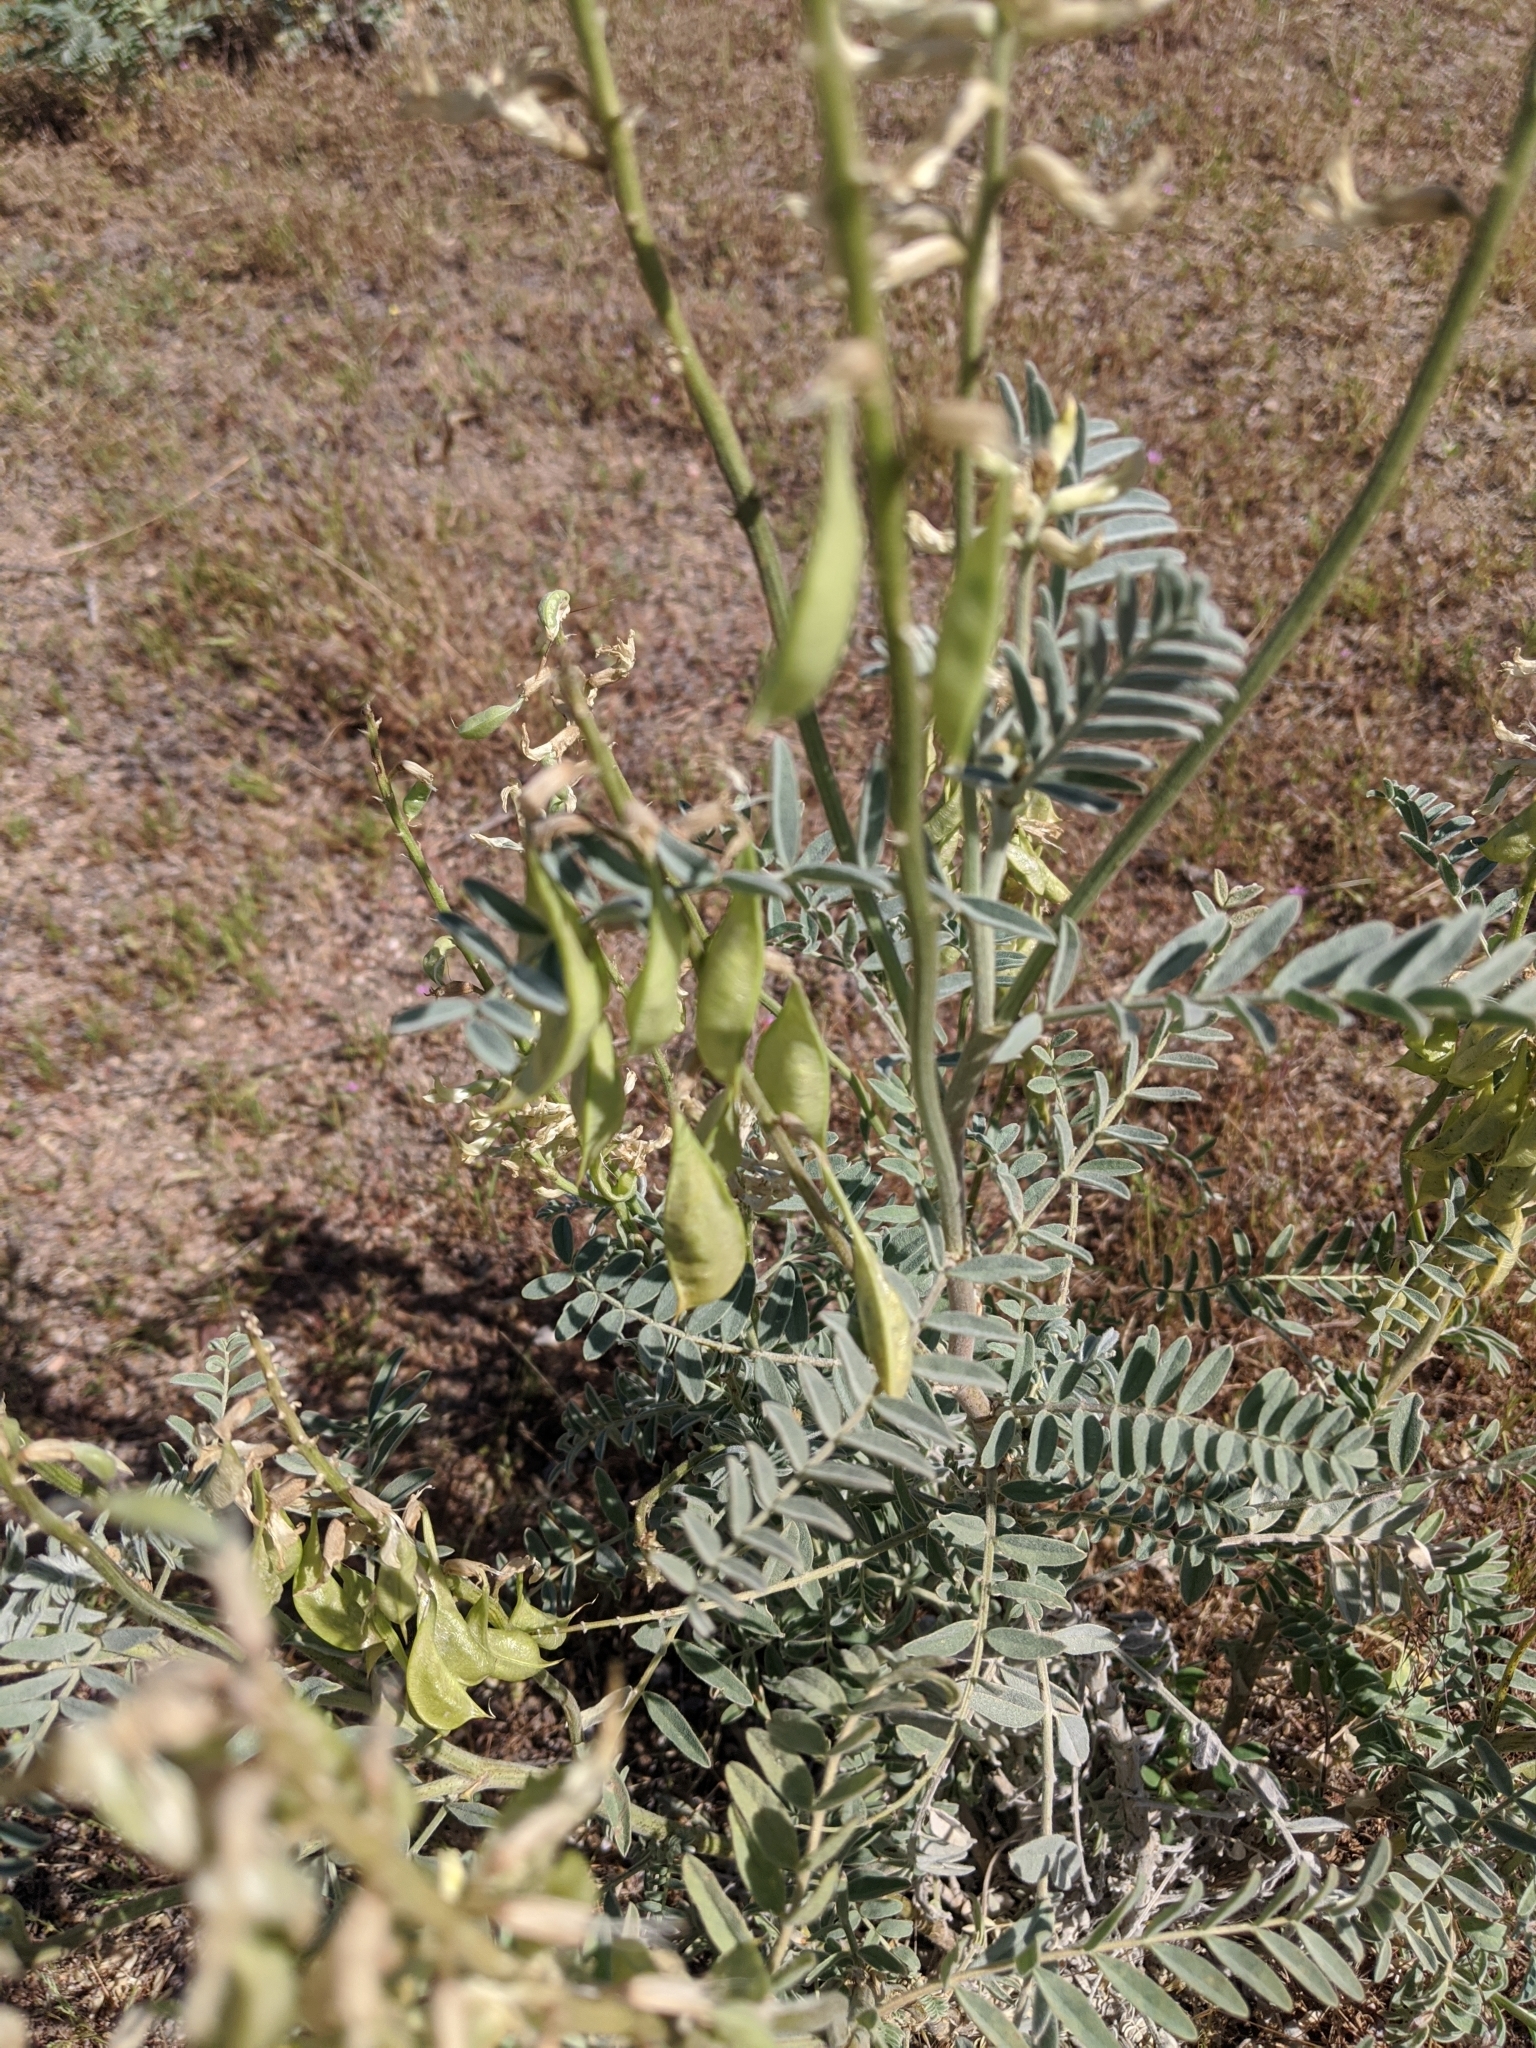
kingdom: Plantae
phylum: Tracheophyta
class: Magnoliopsida
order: Fabales
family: Fabaceae
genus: Astragalus
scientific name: Astragalus oxyphysus
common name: Stanislaus milk-vetch
